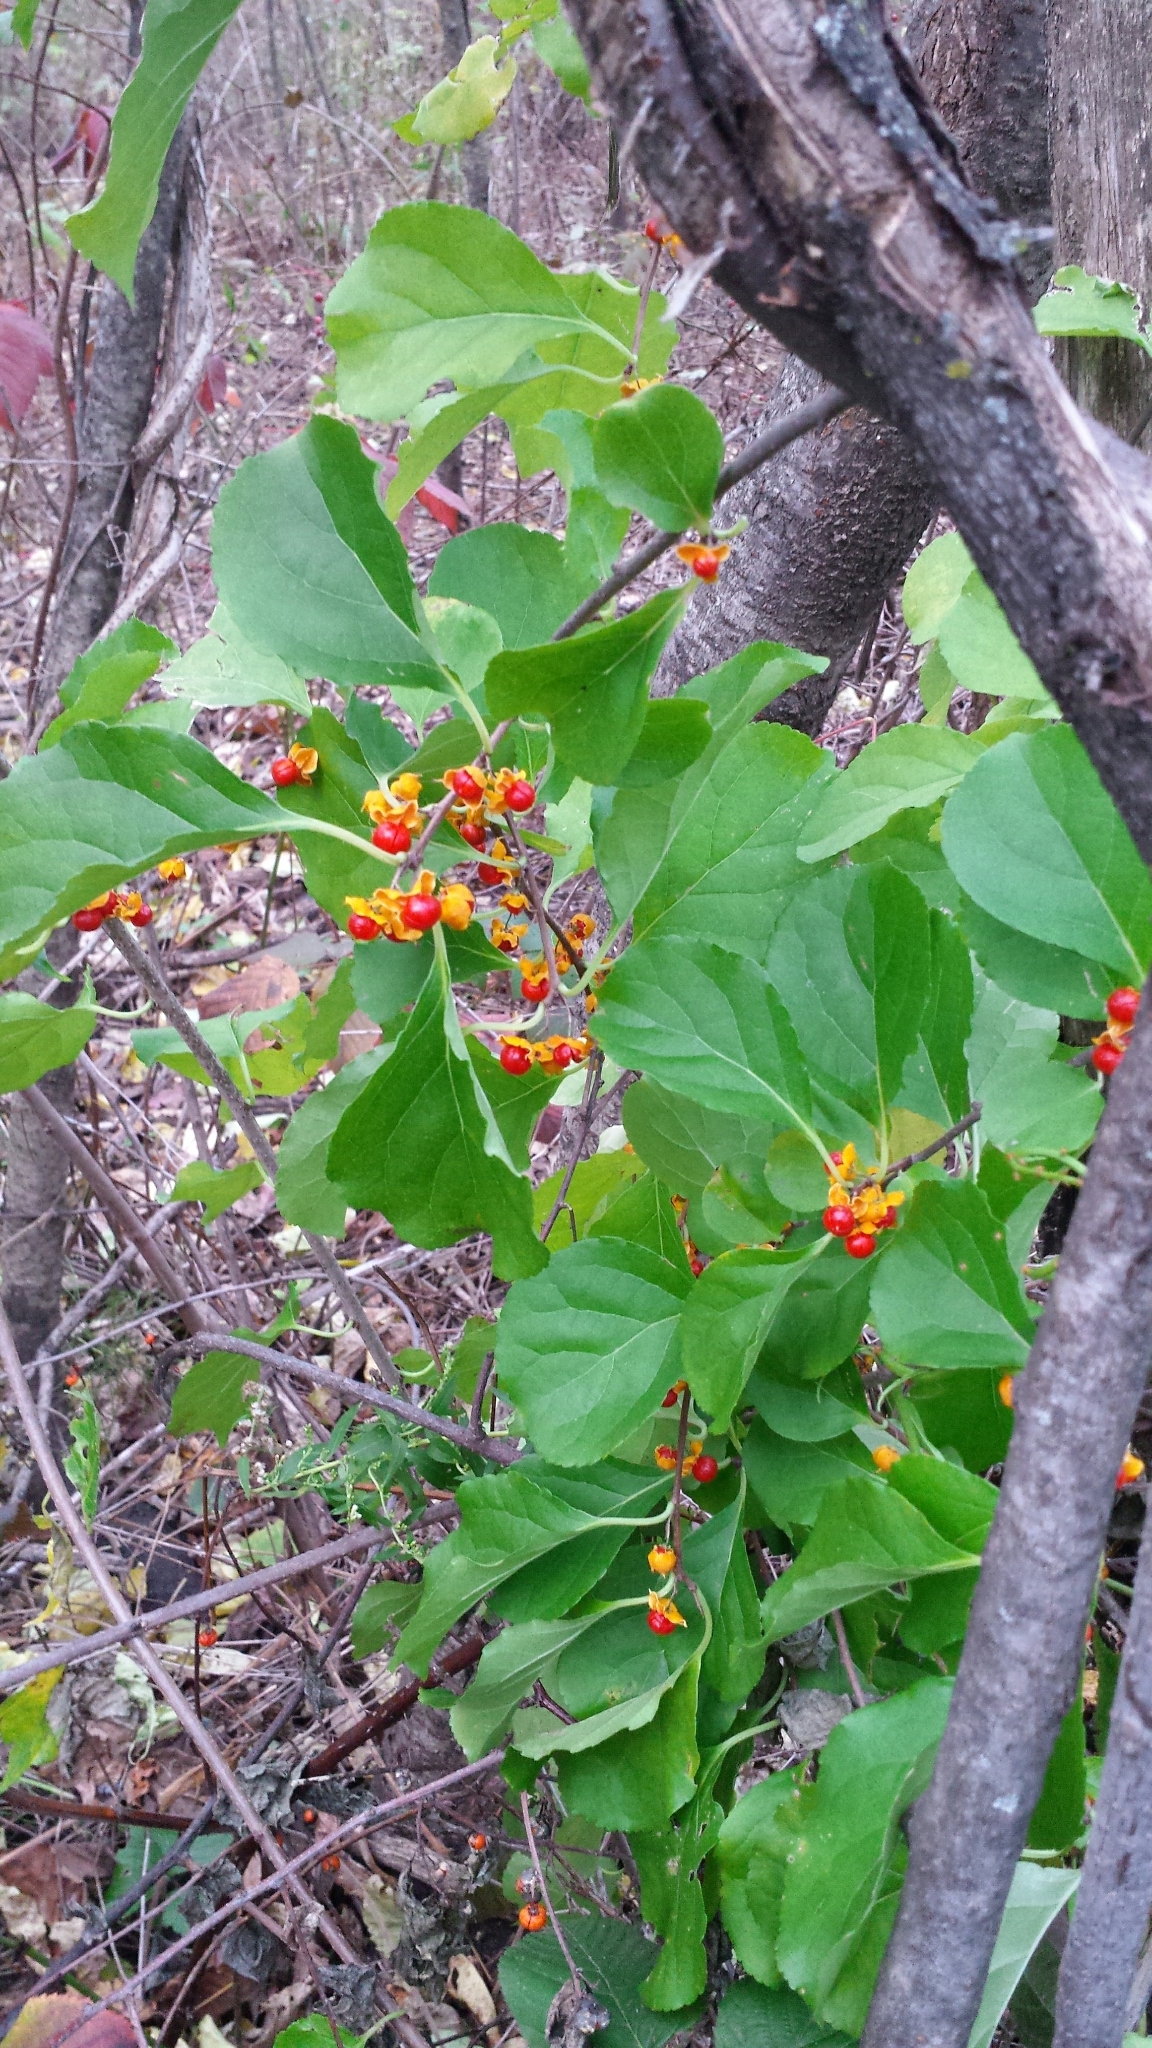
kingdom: Plantae
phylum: Tracheophyta
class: Magnoliopsida
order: Celastrales
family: Celastraceae
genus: Celastrus
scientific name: Celastrus orbiculatus
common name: Oriental bittersweet
